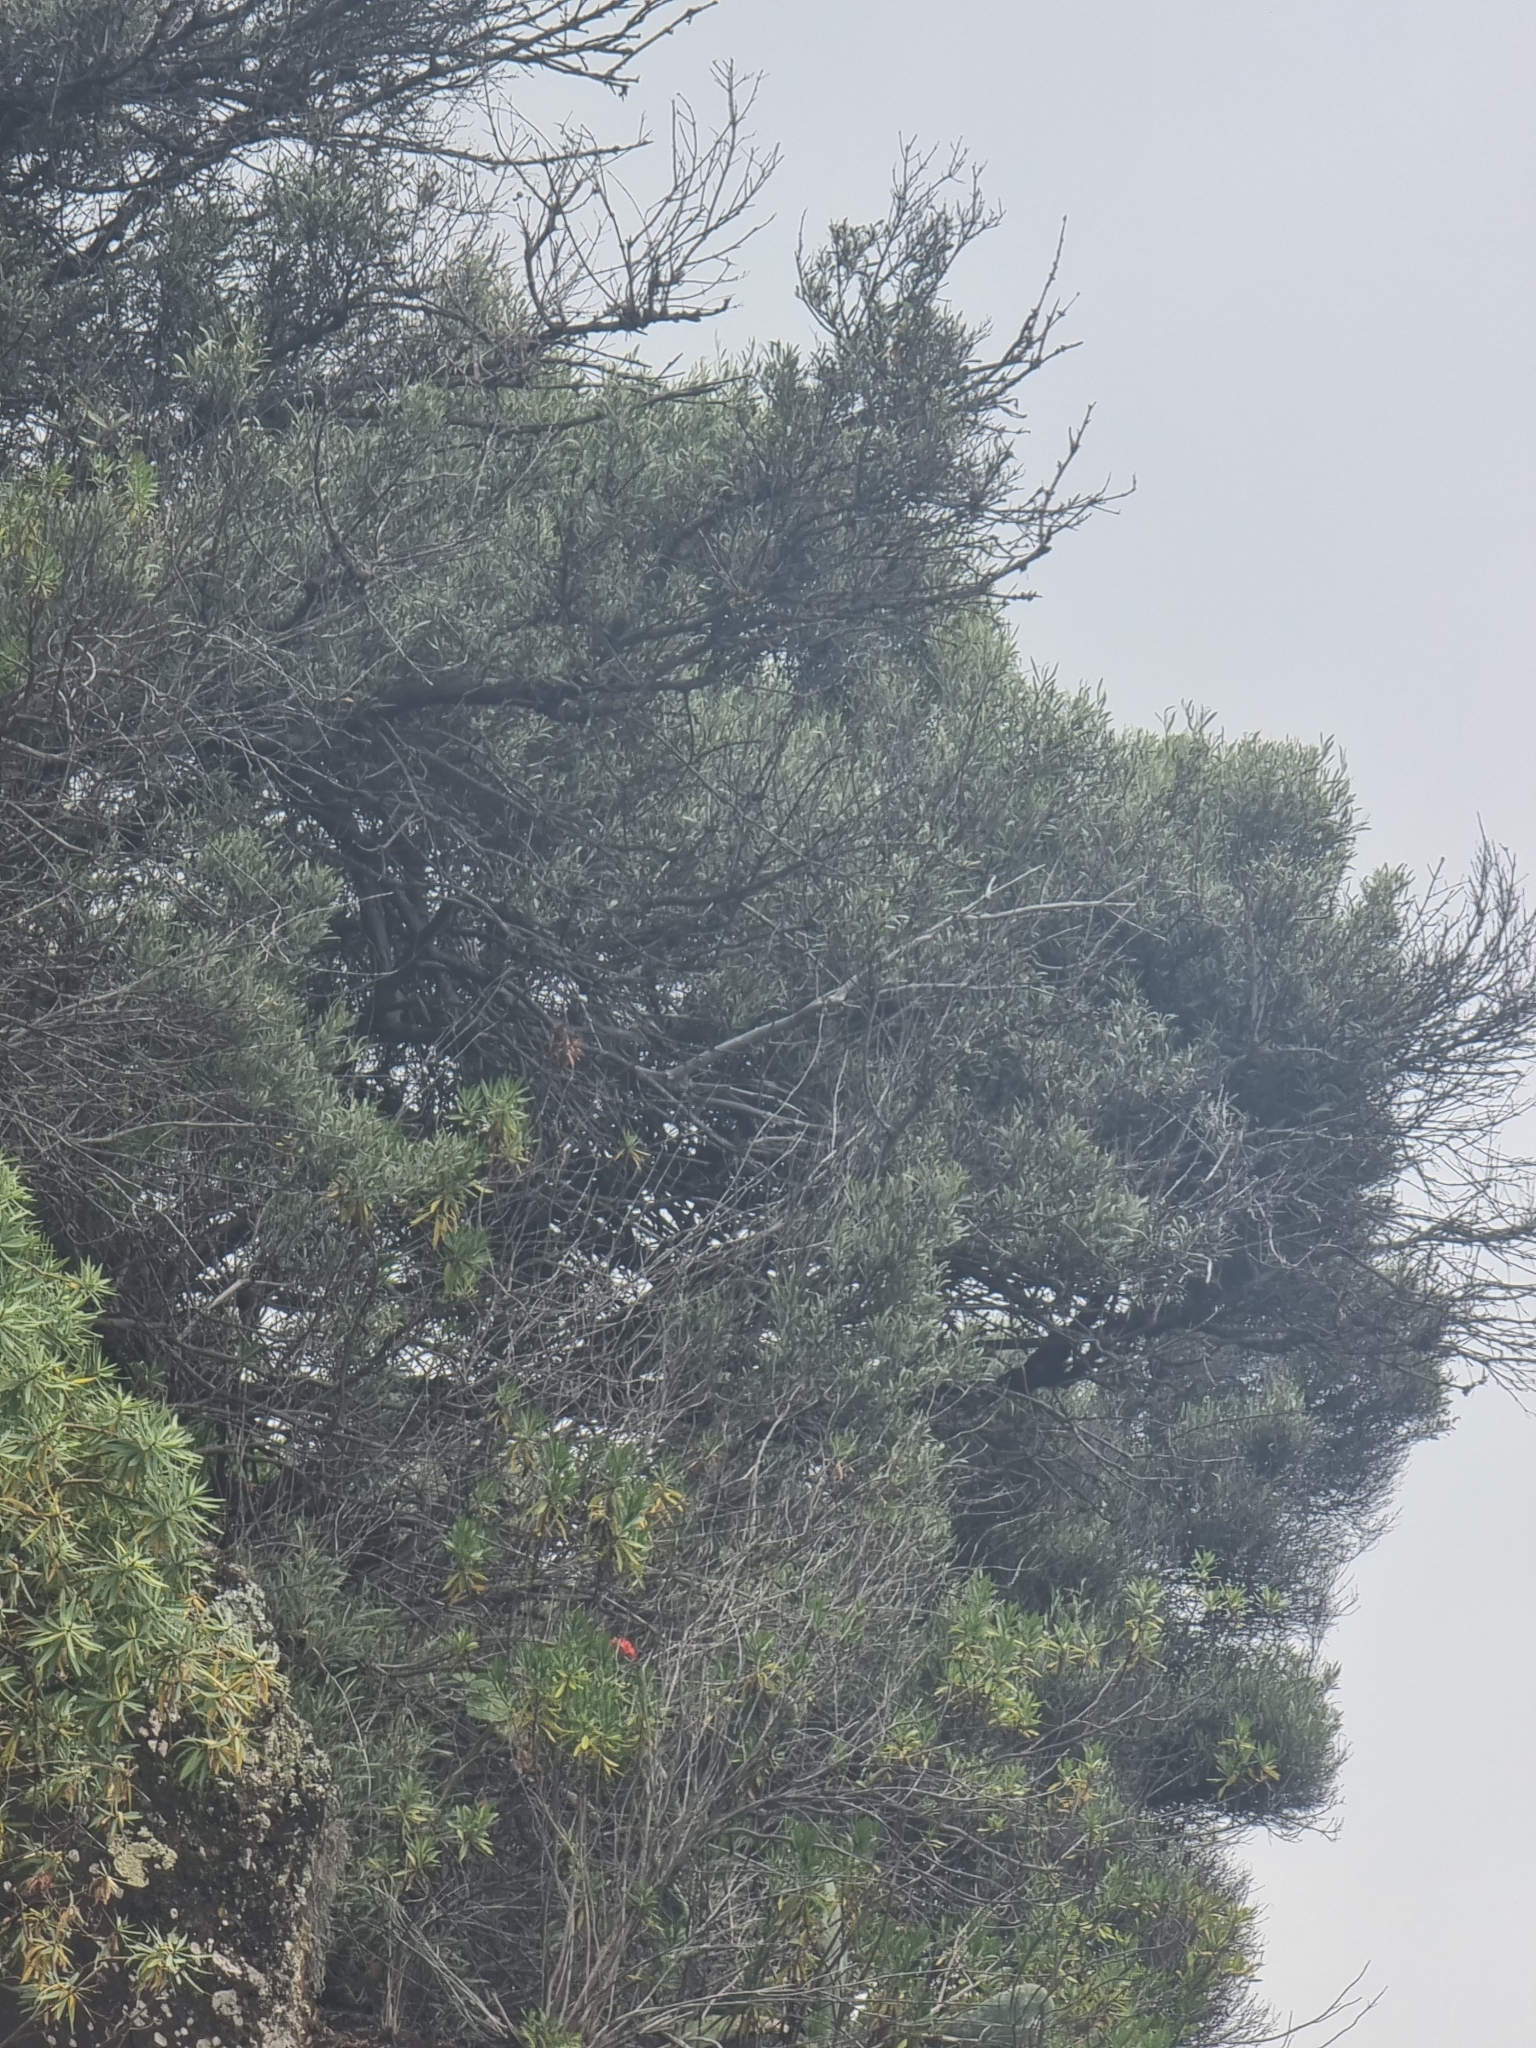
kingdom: Plantae
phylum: Tracheophyta
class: Magnoliopsida
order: Lamiales
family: Oleaceae
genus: Olea
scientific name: Olea europaea
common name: Olive
